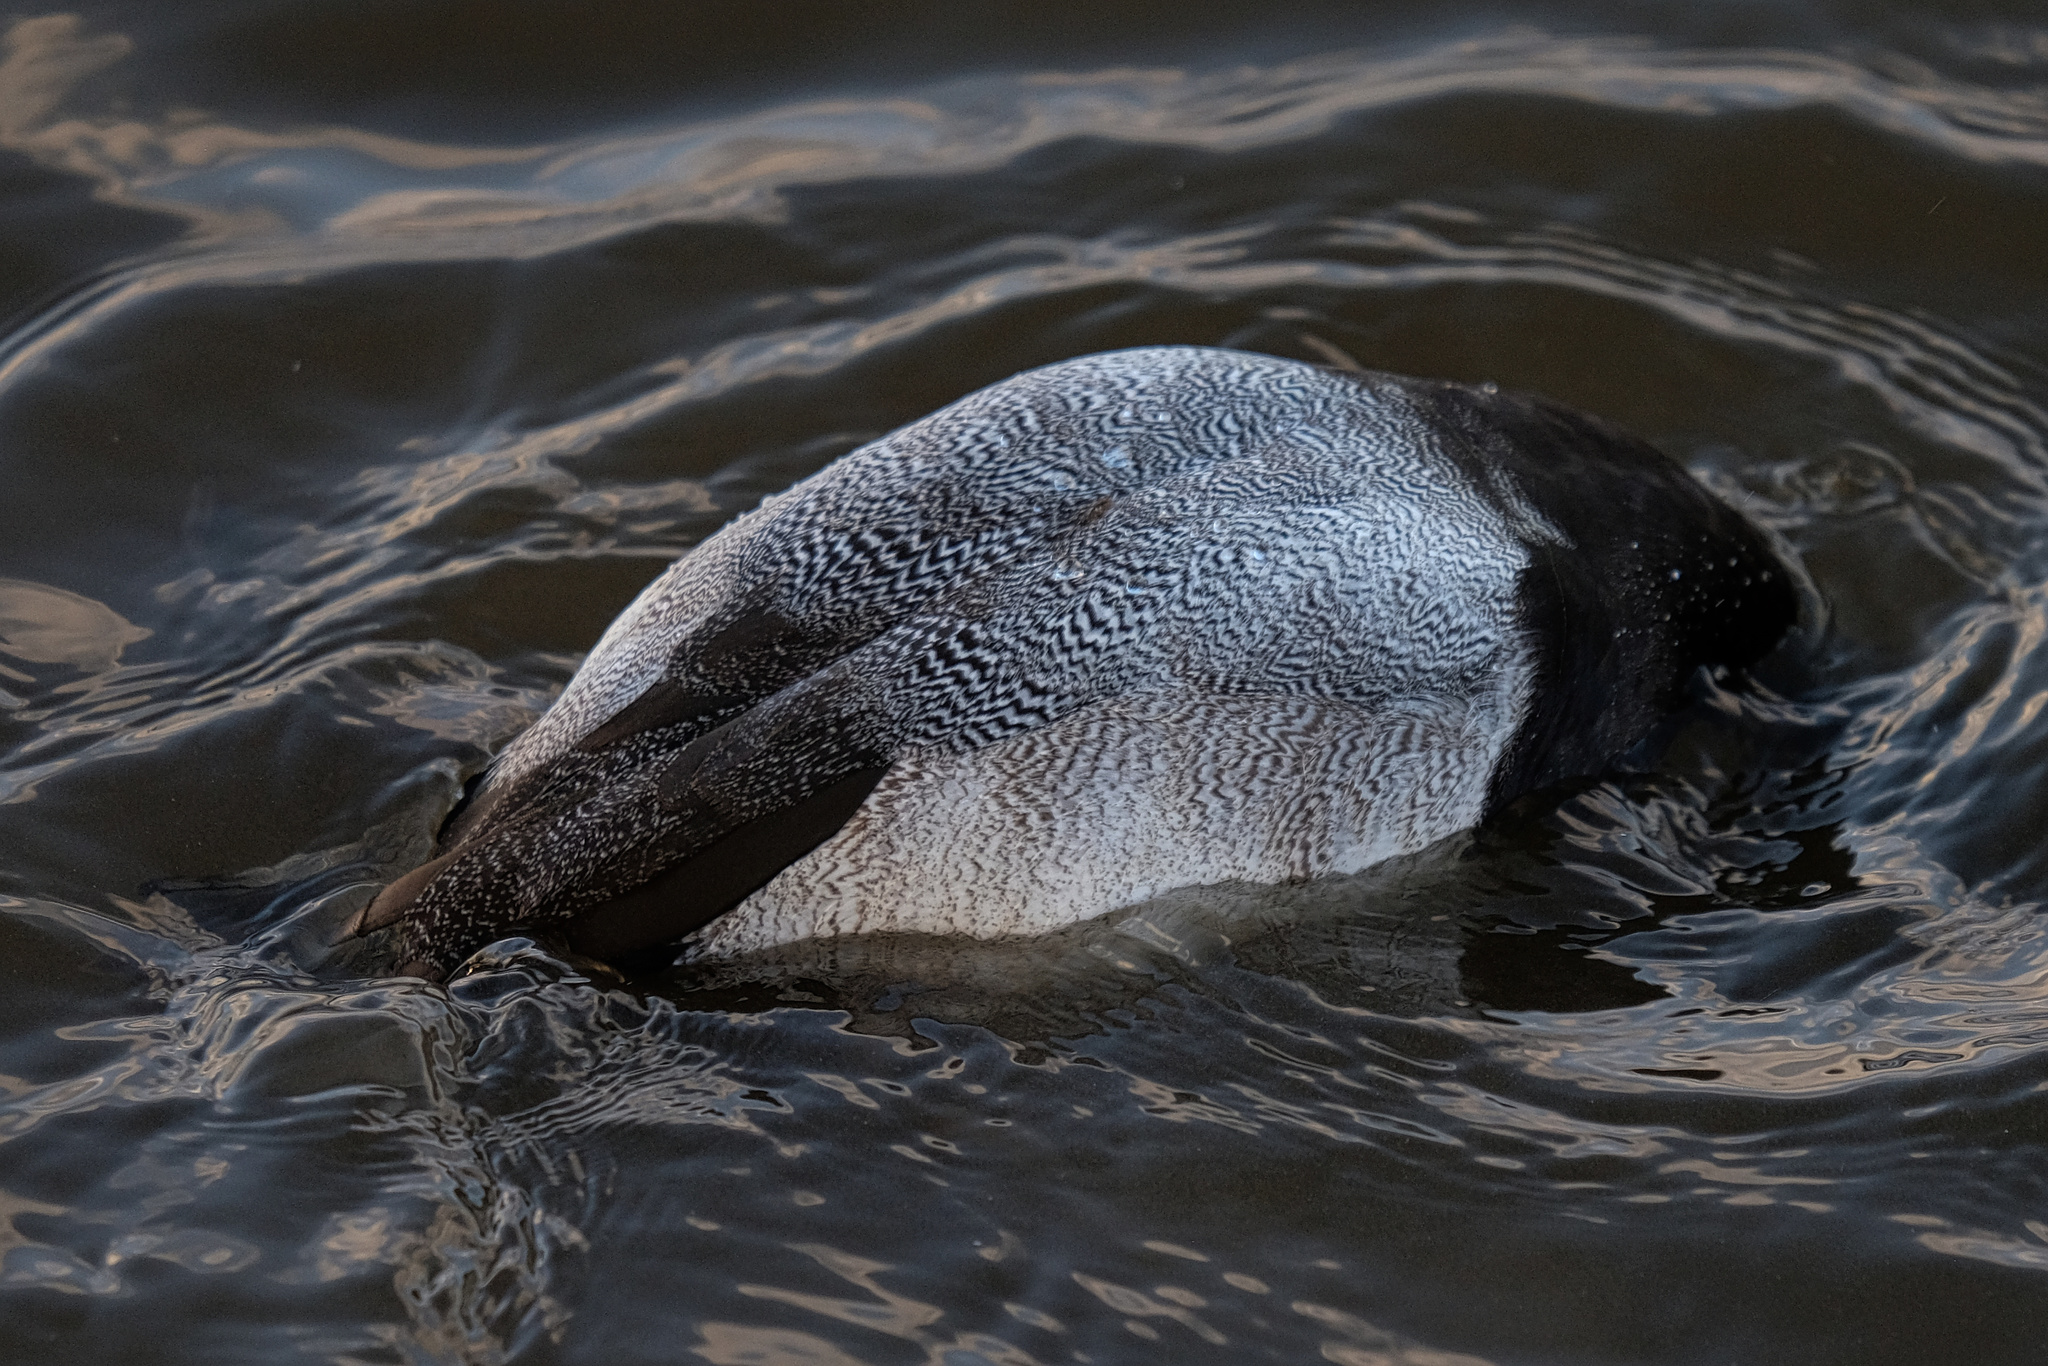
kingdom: Animalia
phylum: Chordata
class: Aves
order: Anseriformes
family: Anatidae
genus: Aythya
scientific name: Aythya affinis
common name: Lesser scaup
